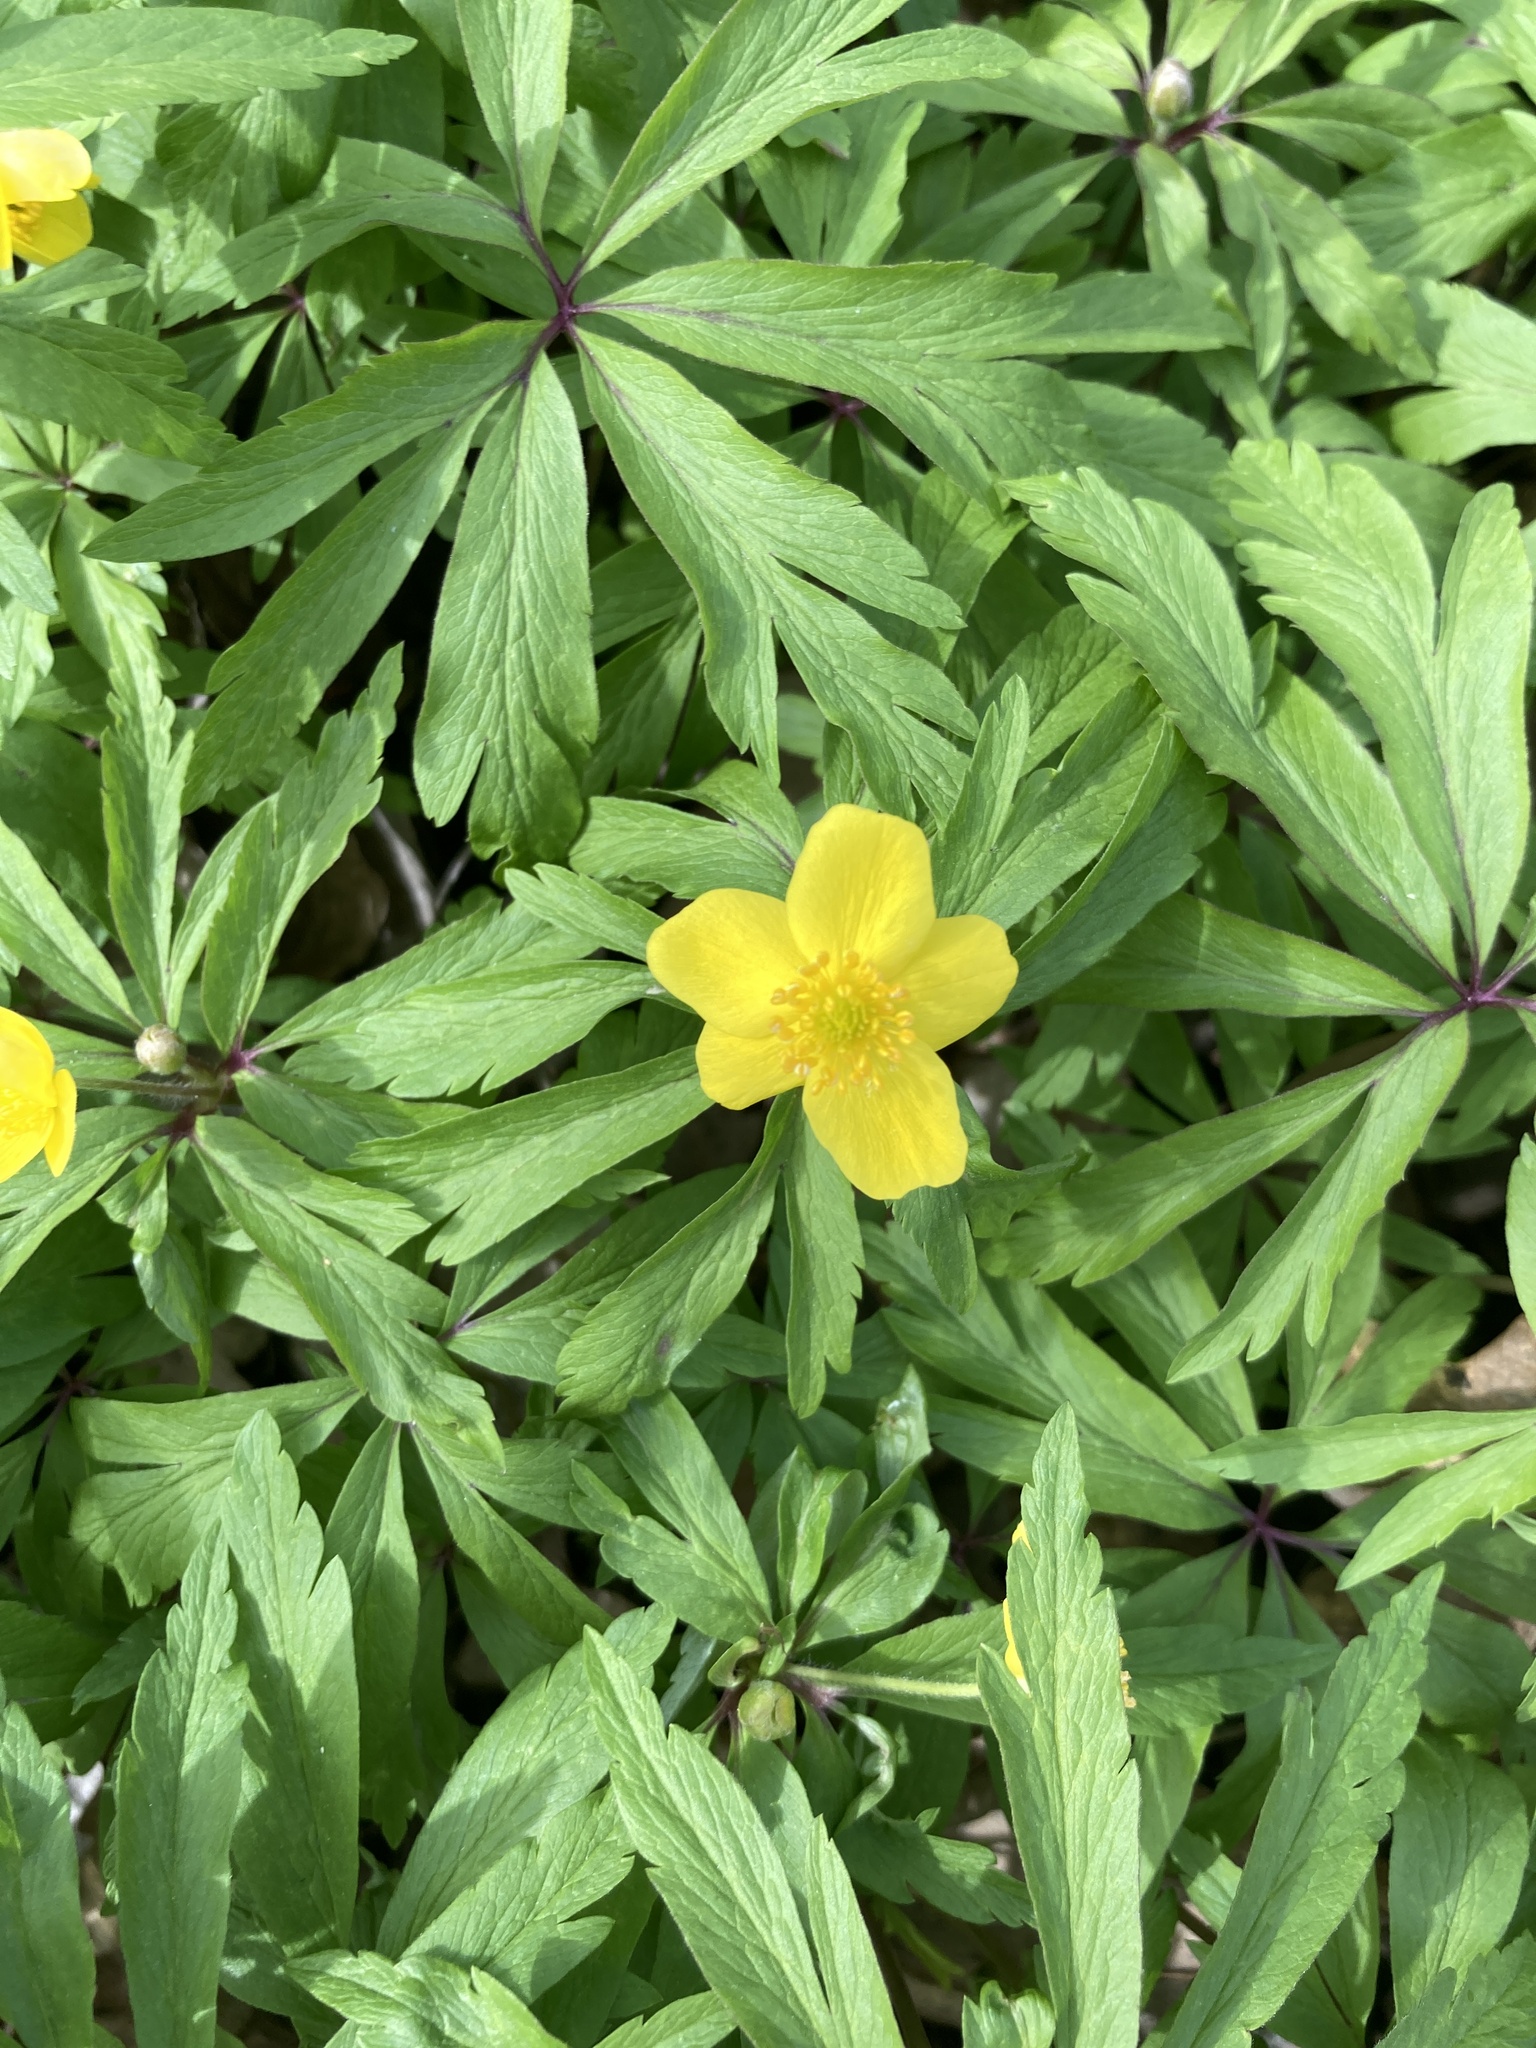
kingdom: Plantae
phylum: Tracheophyta
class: Magnoliopsida
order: Ranunculales
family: Ranunculaceae
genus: Anemone
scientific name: Anemone ranunculoides
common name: Yellow anemone
